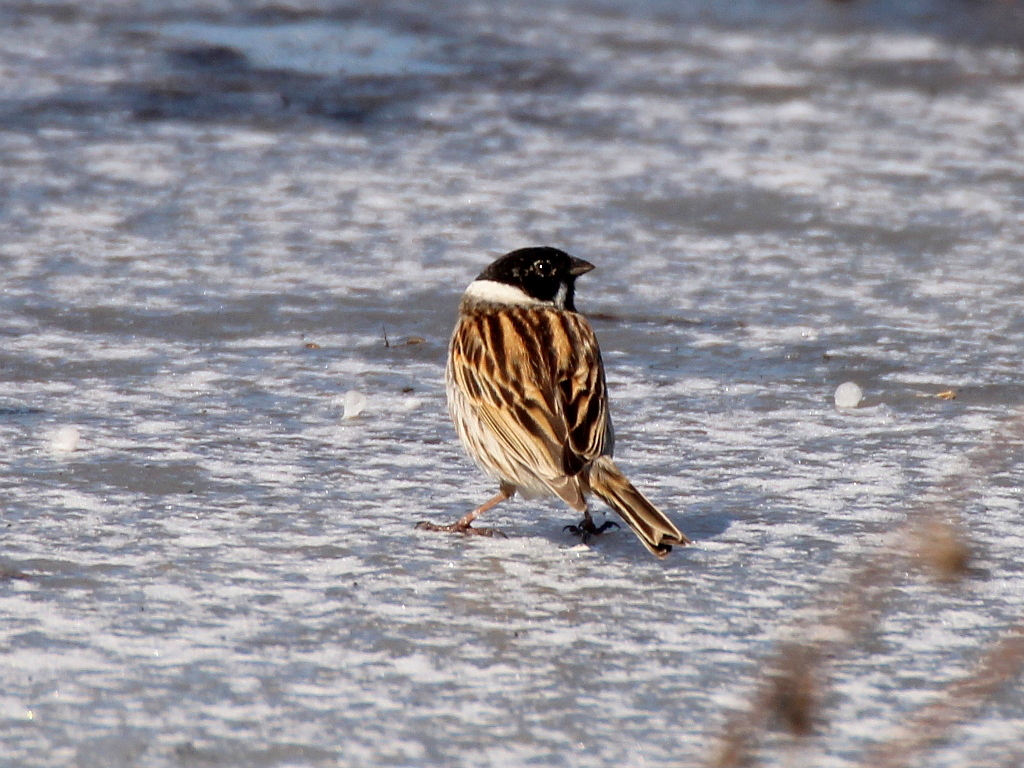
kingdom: Animalia
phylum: Chordata
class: Aves
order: Passeriformes
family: Emberizidae
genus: Emberiza
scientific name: Emberiza schoeniclus
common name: Reed bunting
